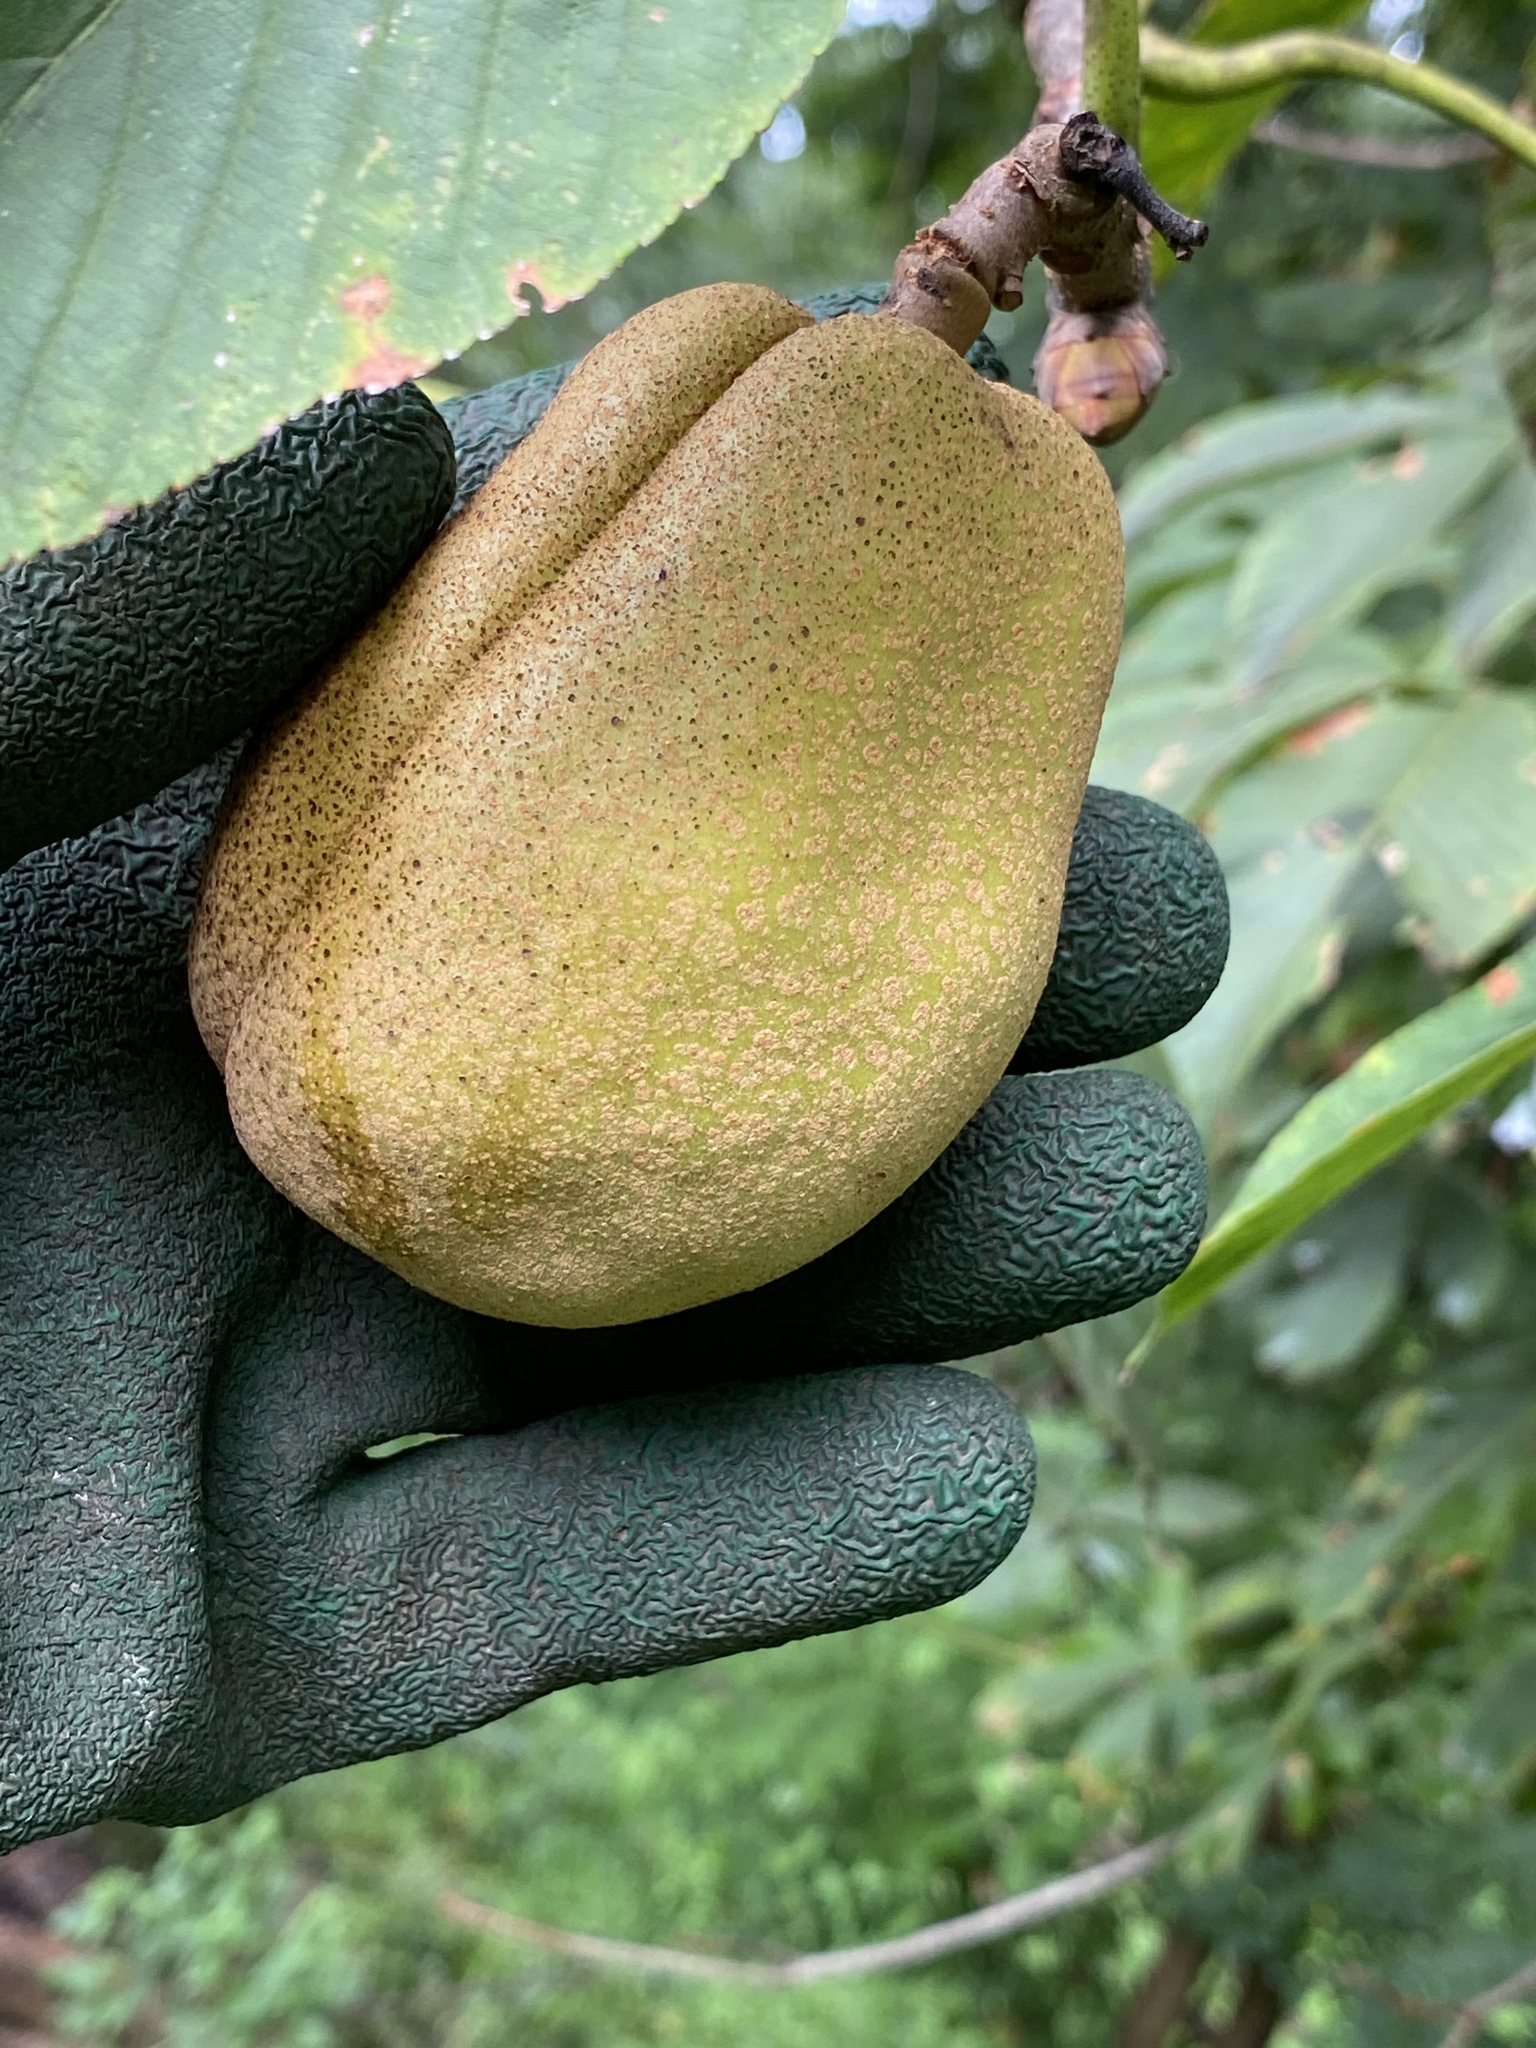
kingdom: Plantae
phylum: Tracheophyta
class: Magnoliopsida
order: Sapindales
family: Sapindaceae
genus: Aesculus
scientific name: Aesculus flava
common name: Yellow buckeye
